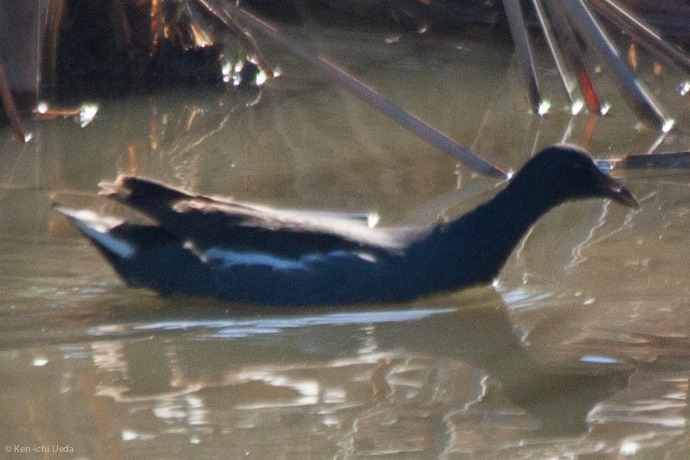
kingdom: Animalia
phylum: Chordata
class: Aves
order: Gruiformes
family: Rallidae
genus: Gallinula
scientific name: Gallinula chloropus
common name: Common moorhen
